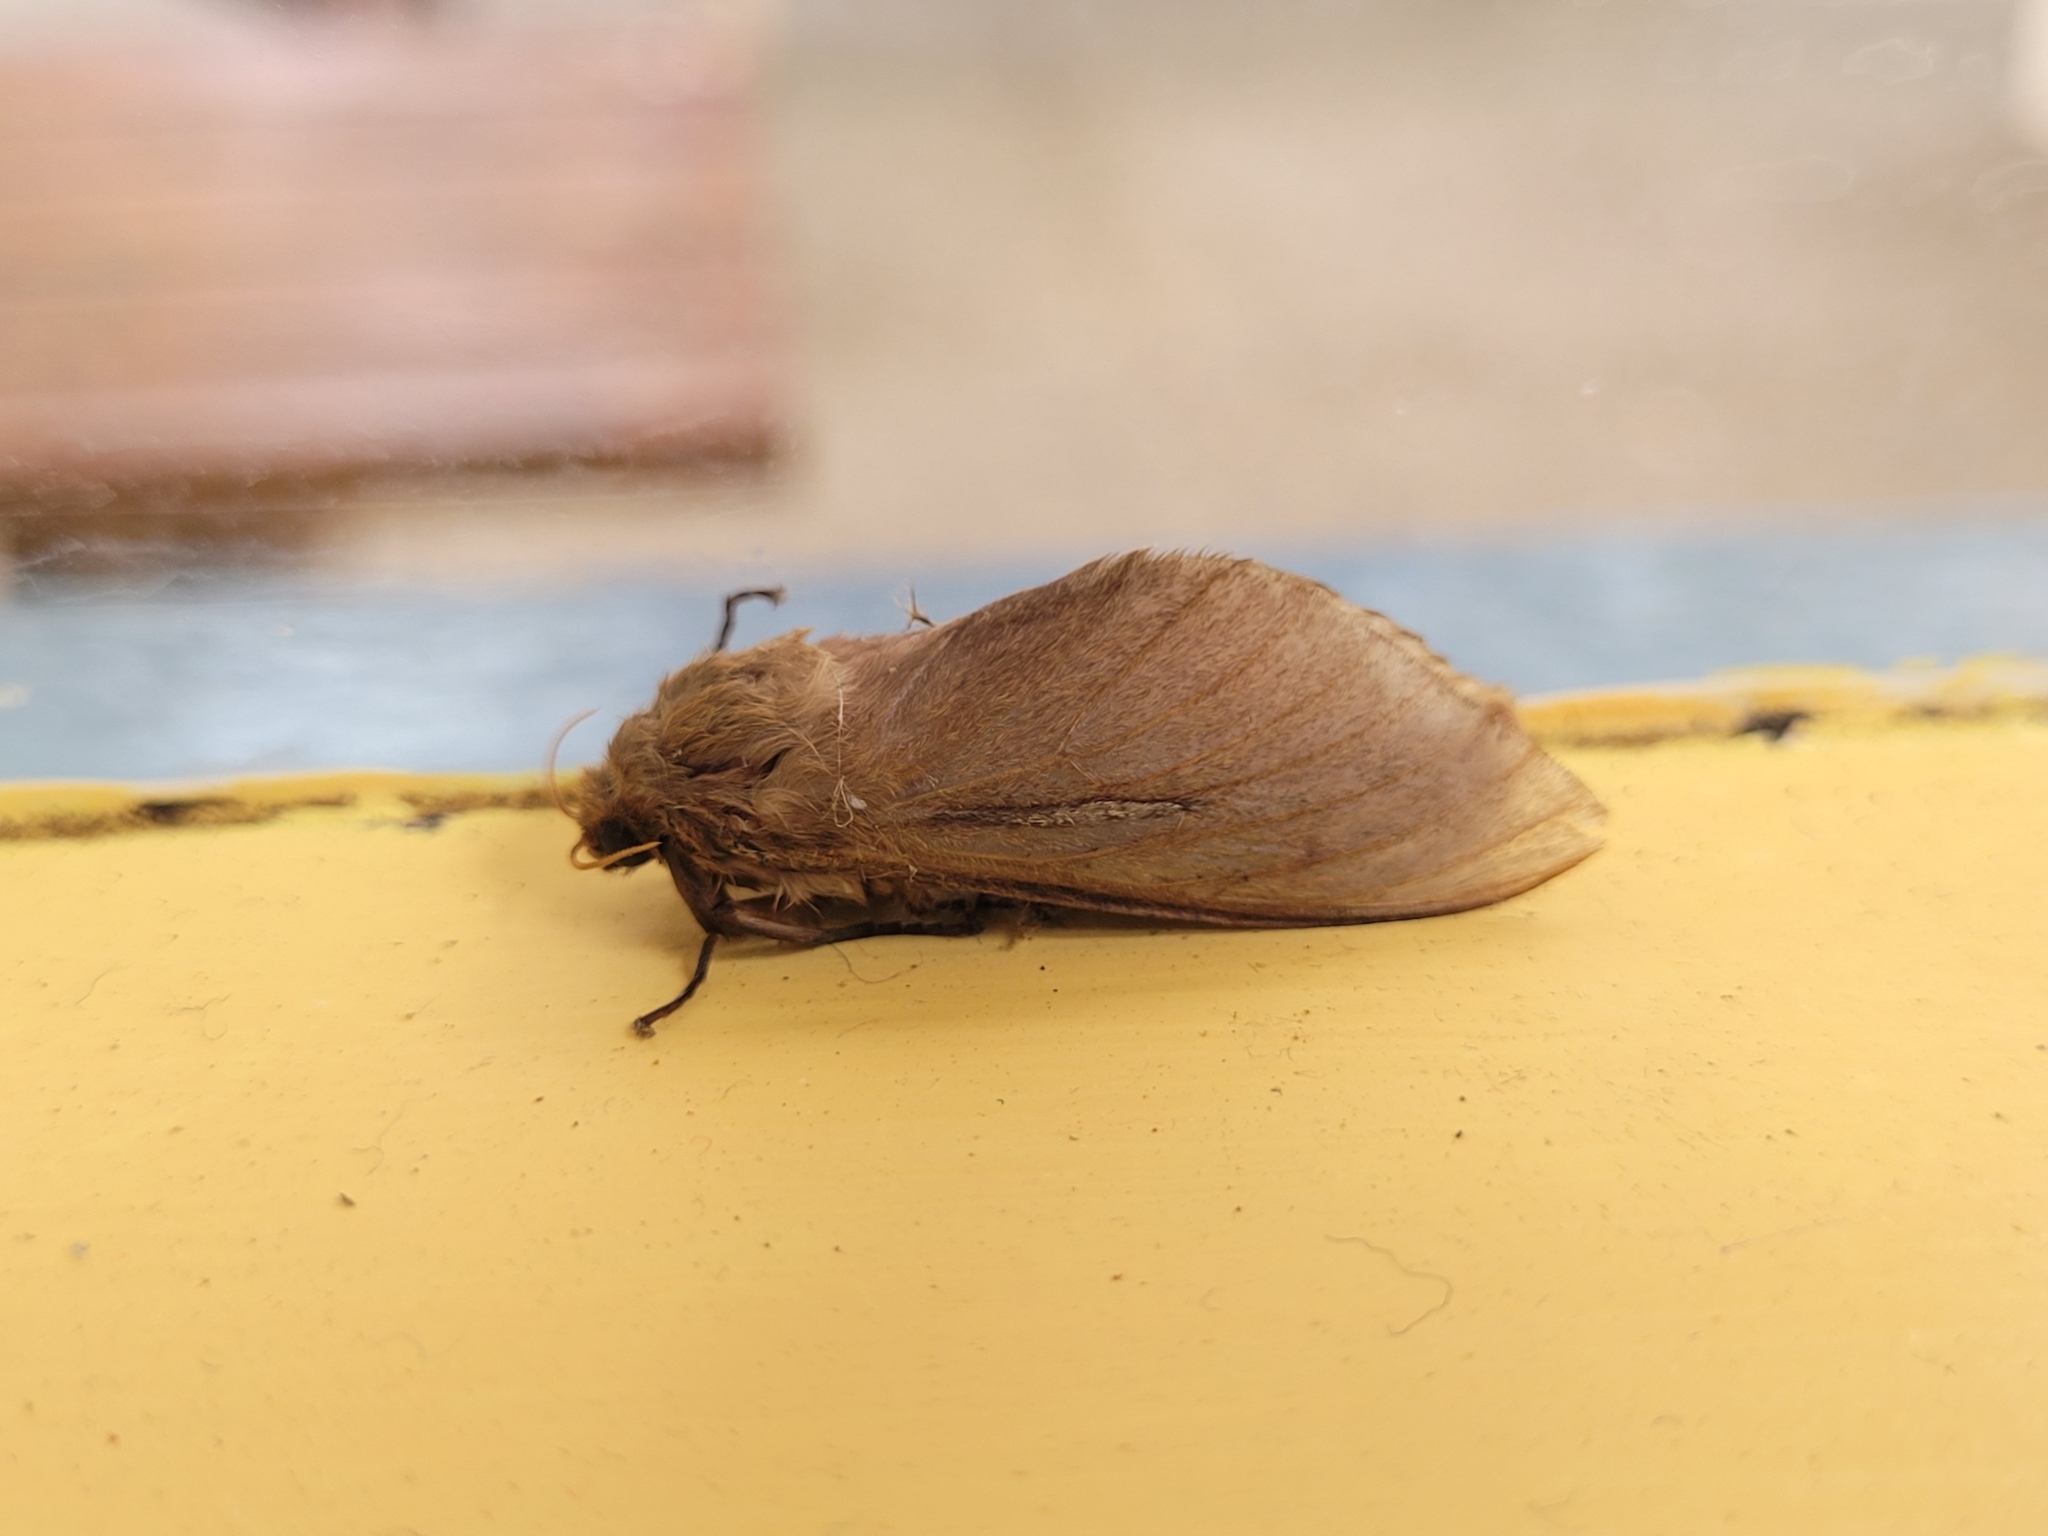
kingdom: Animalia
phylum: Arthropoda
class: Insecta
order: Lepidoptera
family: Hepialidae
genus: Wiseana
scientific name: Wiseana umbraculatus
